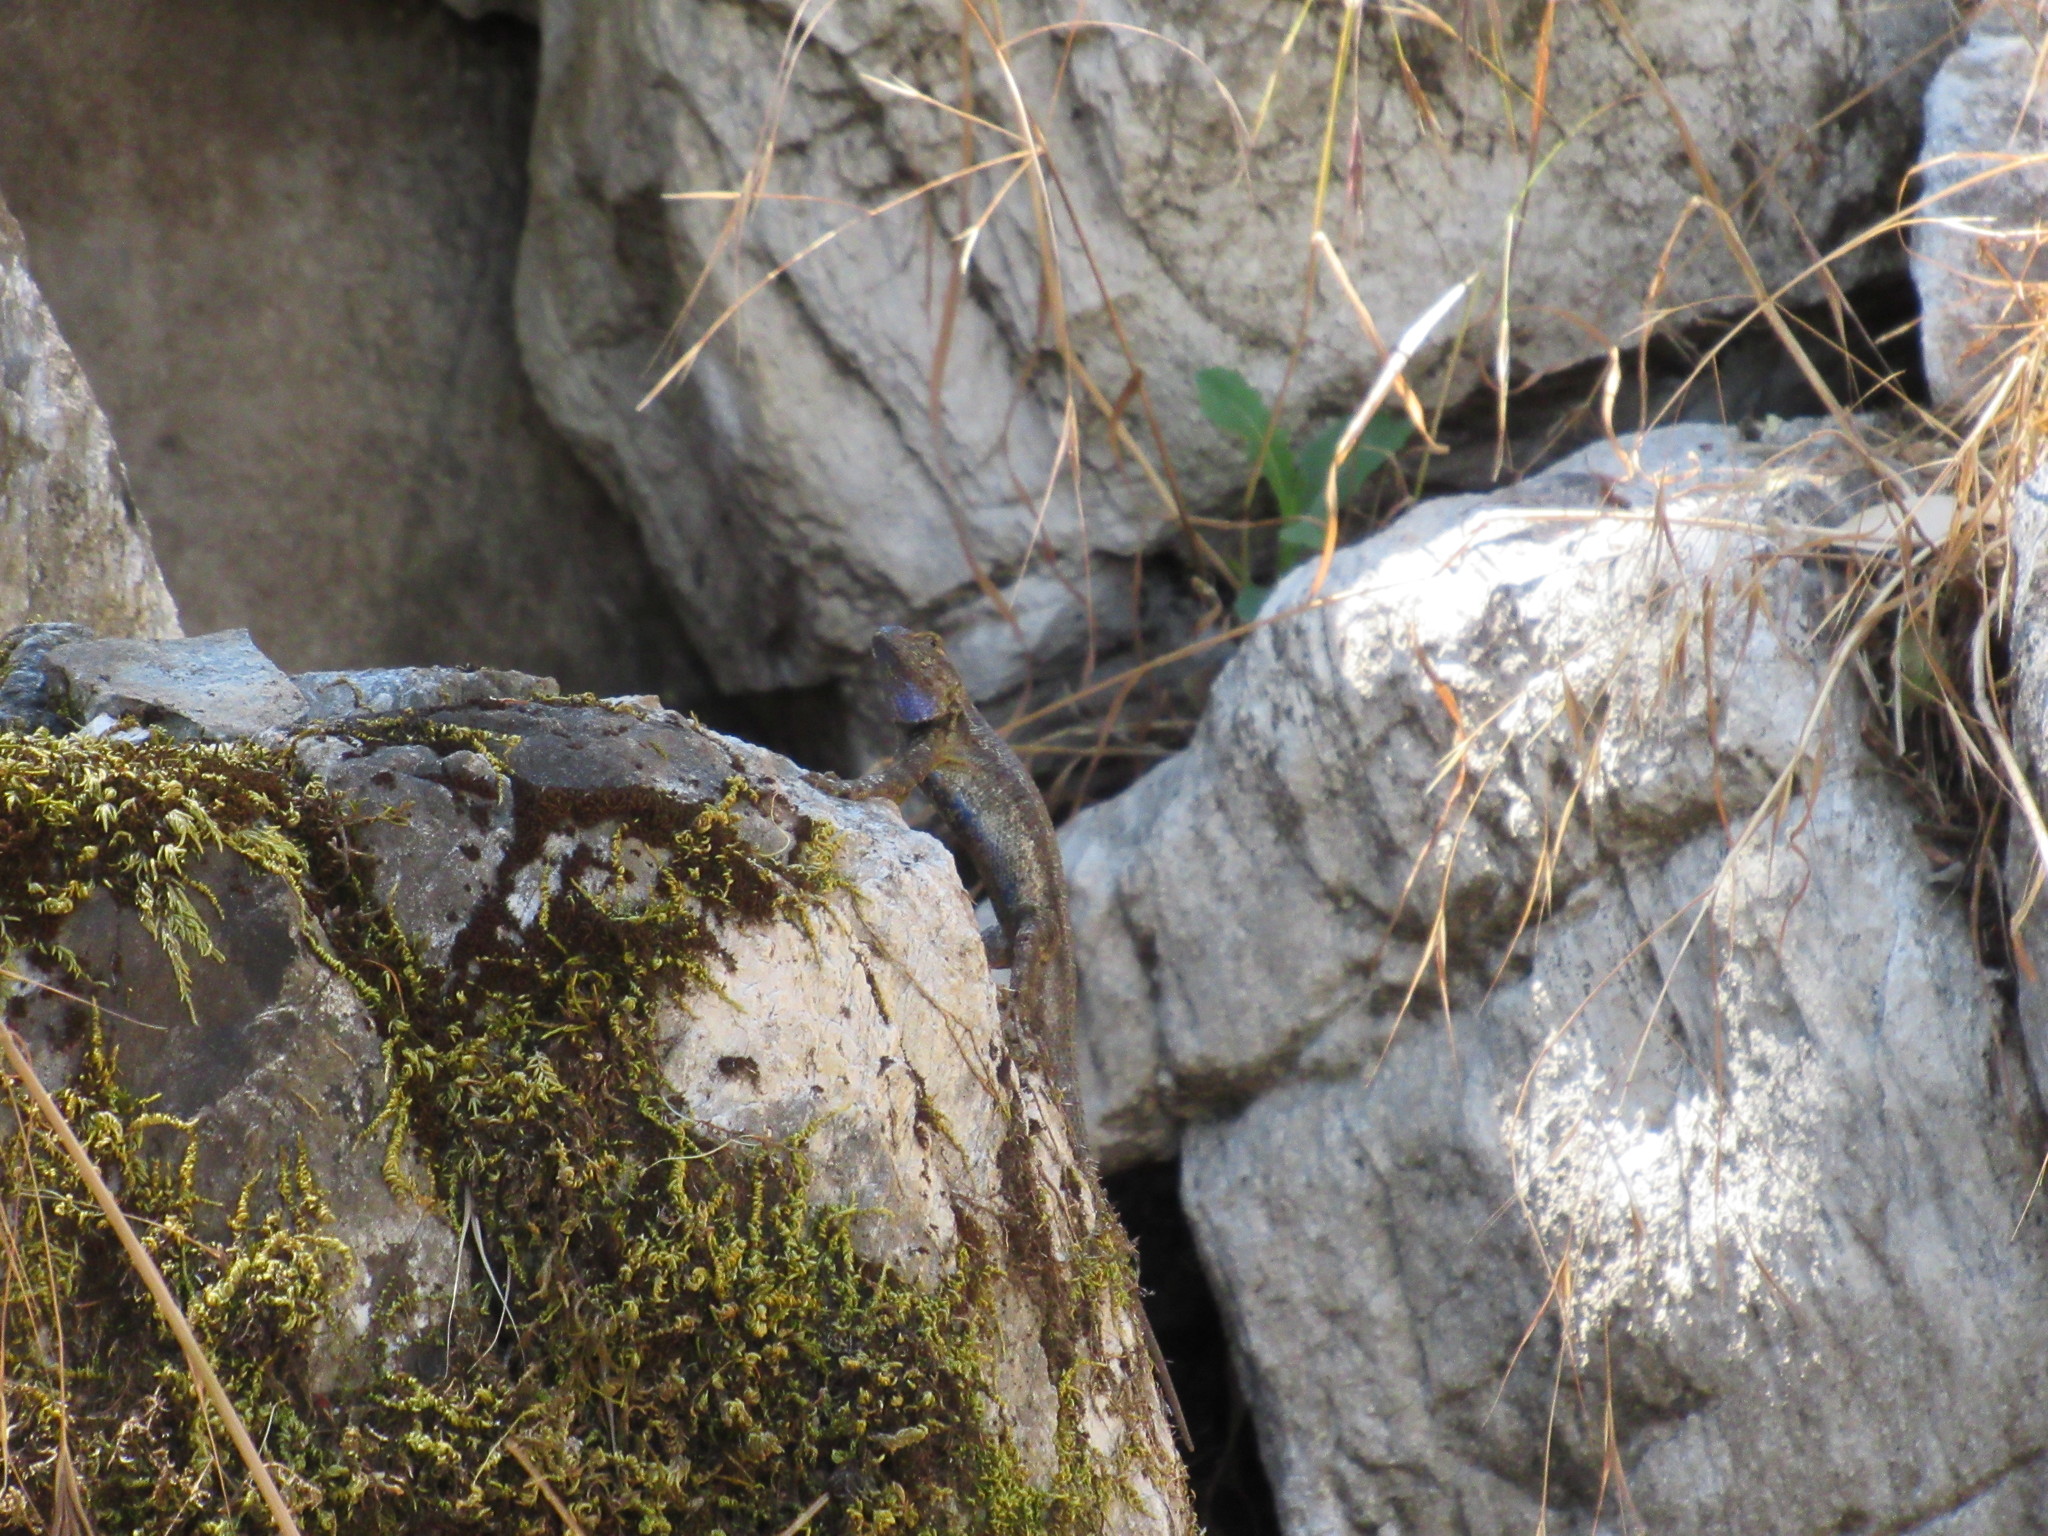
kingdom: Animalia
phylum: Chordata
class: Squamata
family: Phrynosomatidae
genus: Sceloporus
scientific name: Sceloporus occidentalis
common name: Western fence lizard
